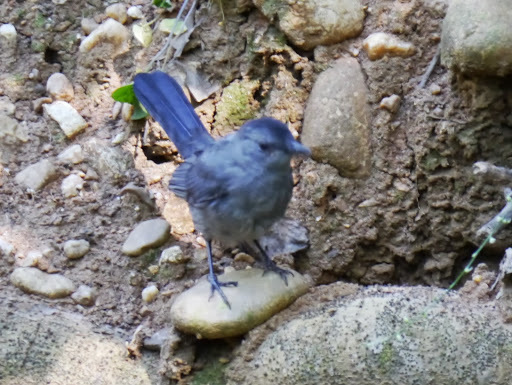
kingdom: Animalia
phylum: Chordata
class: Aves
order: Passeriformes
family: Mimidae
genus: Dumetella
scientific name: Dumetella carolinensis
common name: Gray catbird
